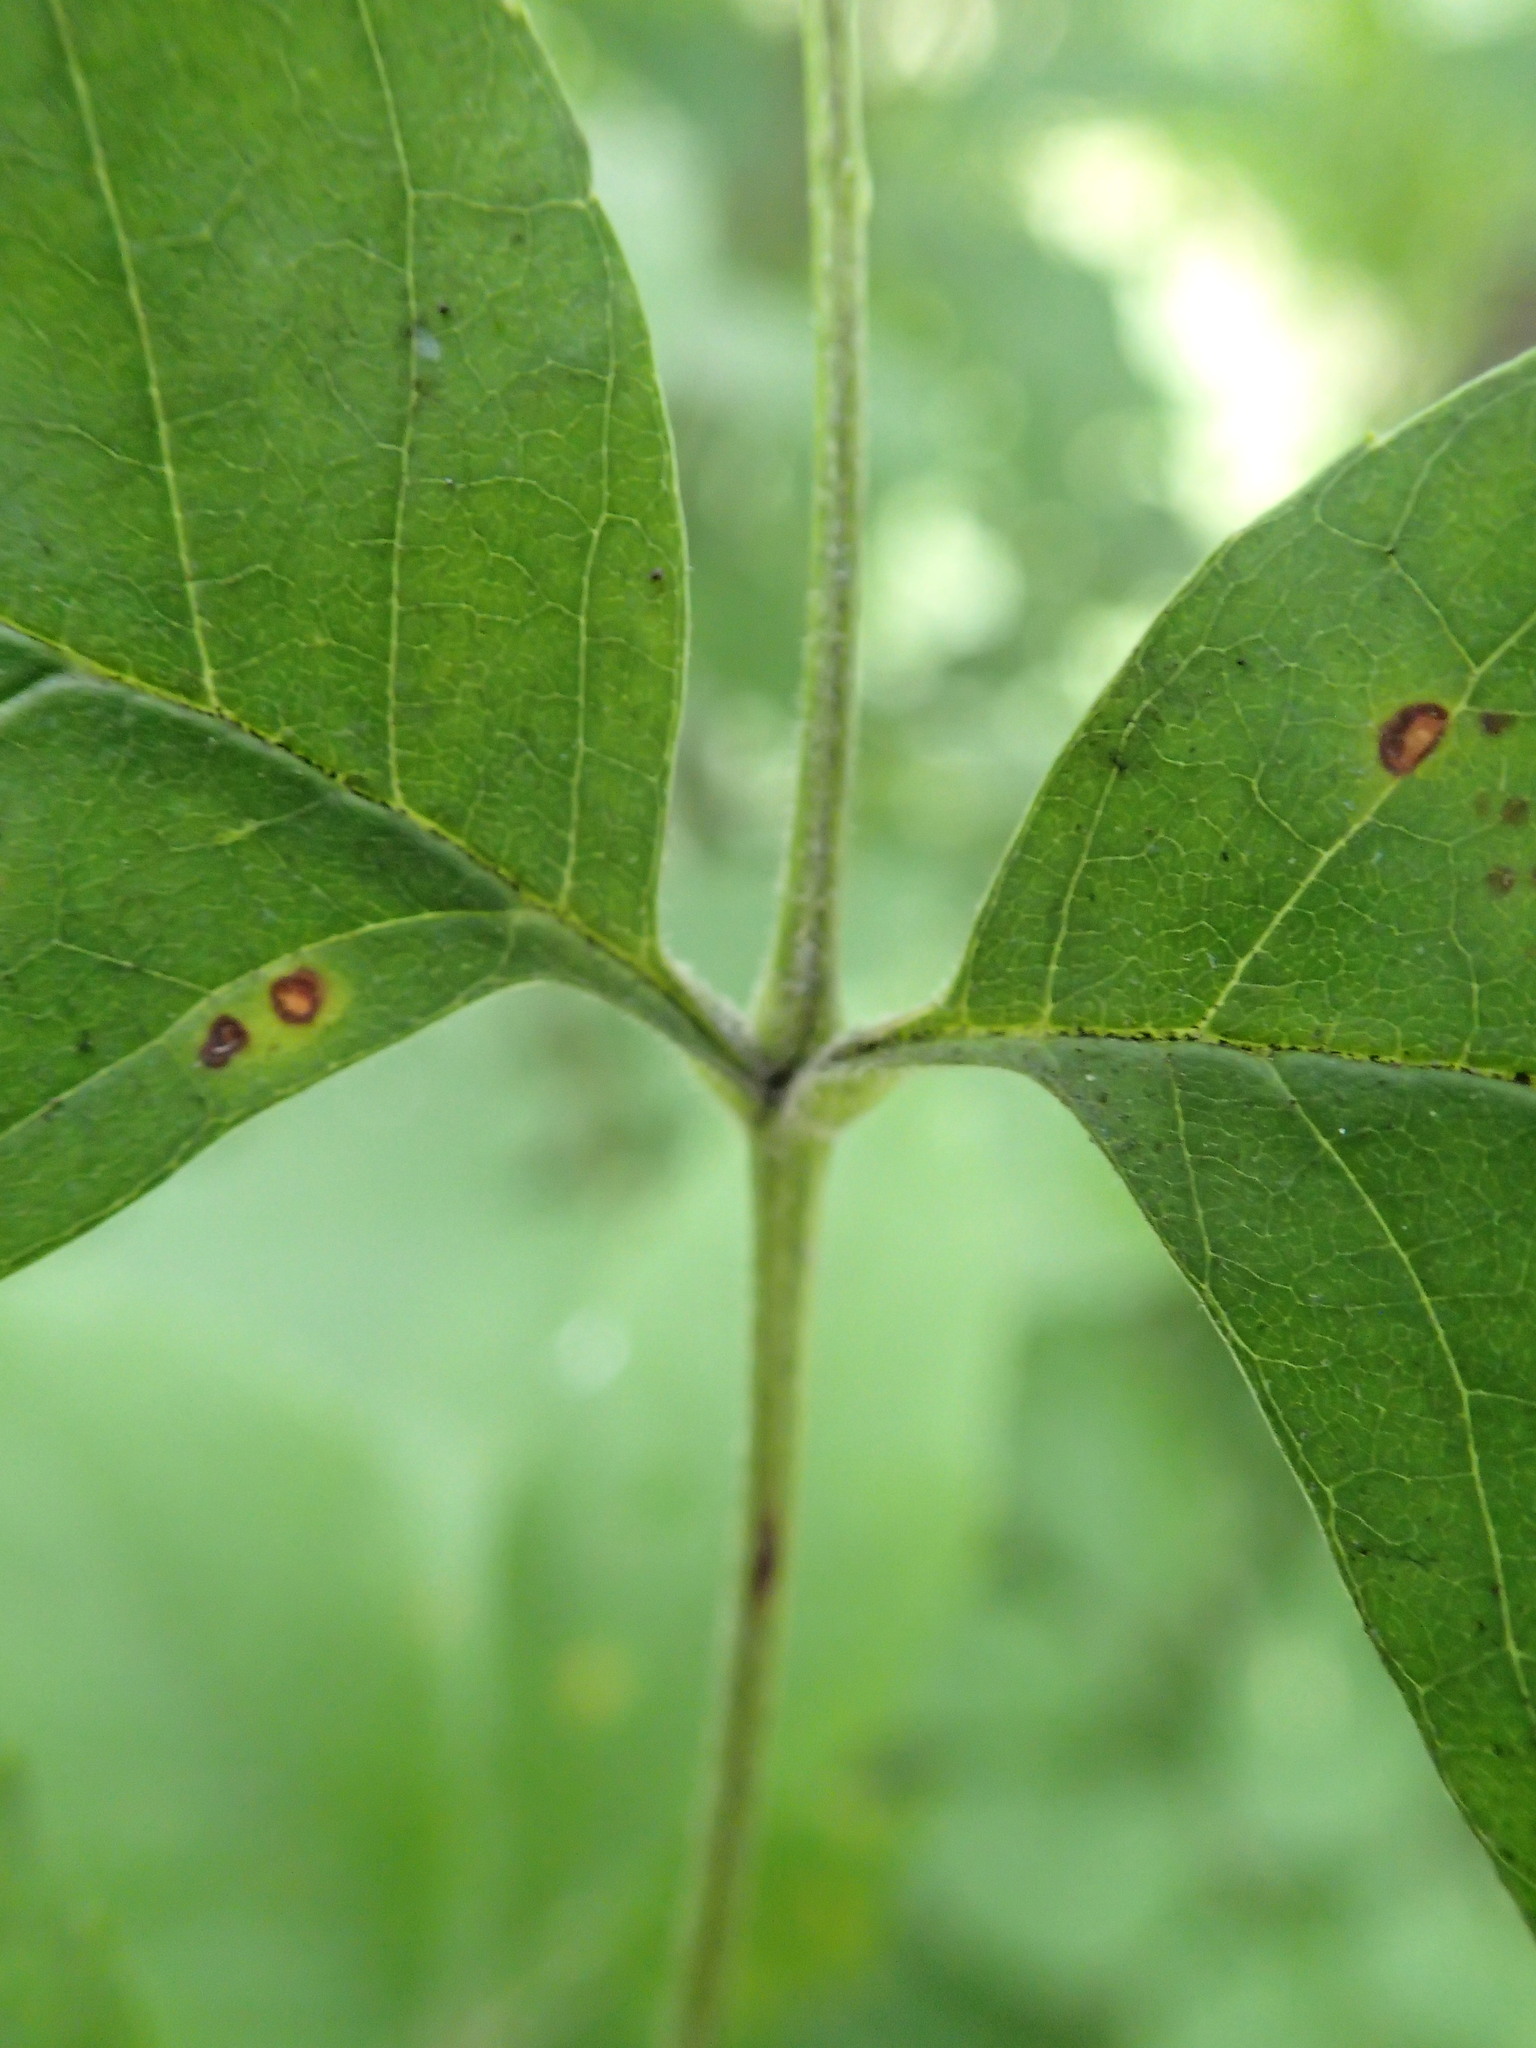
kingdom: Plantae
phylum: Tracheophyta
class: Magnoliopsida
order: Lamiales
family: Oleaceae
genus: Fraxinus
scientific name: Fraxinus pennsylvanica
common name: Green ash
